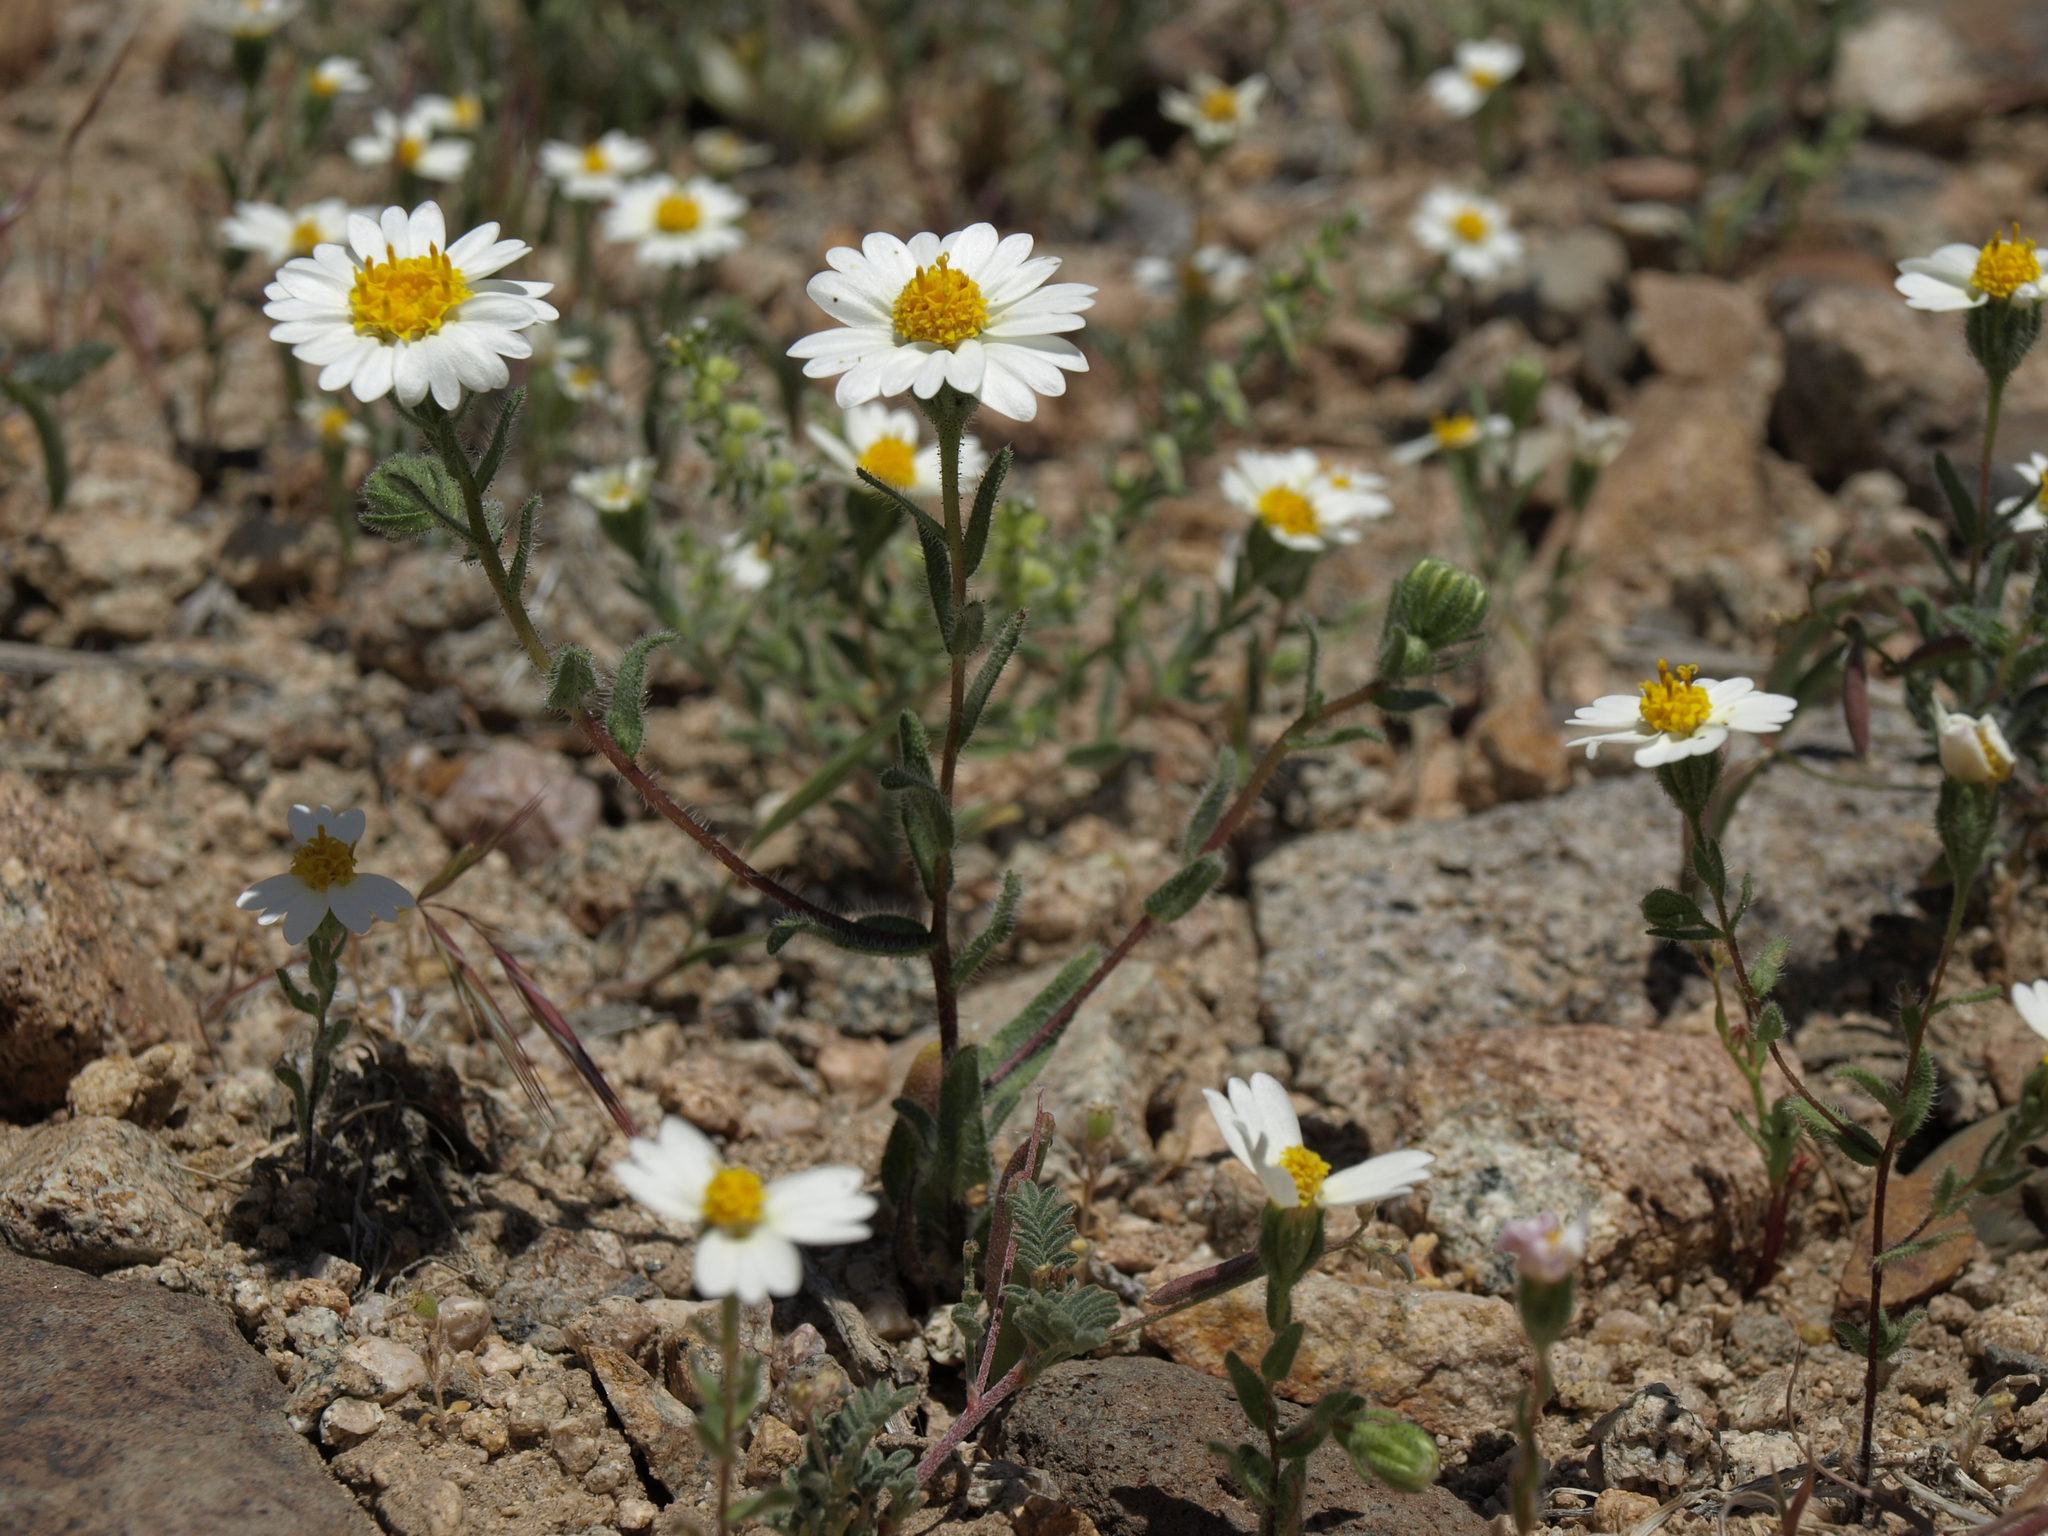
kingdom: Plantae
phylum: Tracheophyta
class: Magnoliopsida
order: Asterales
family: Asteraceae
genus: Layia
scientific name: Layia glandulosa
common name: White layia
